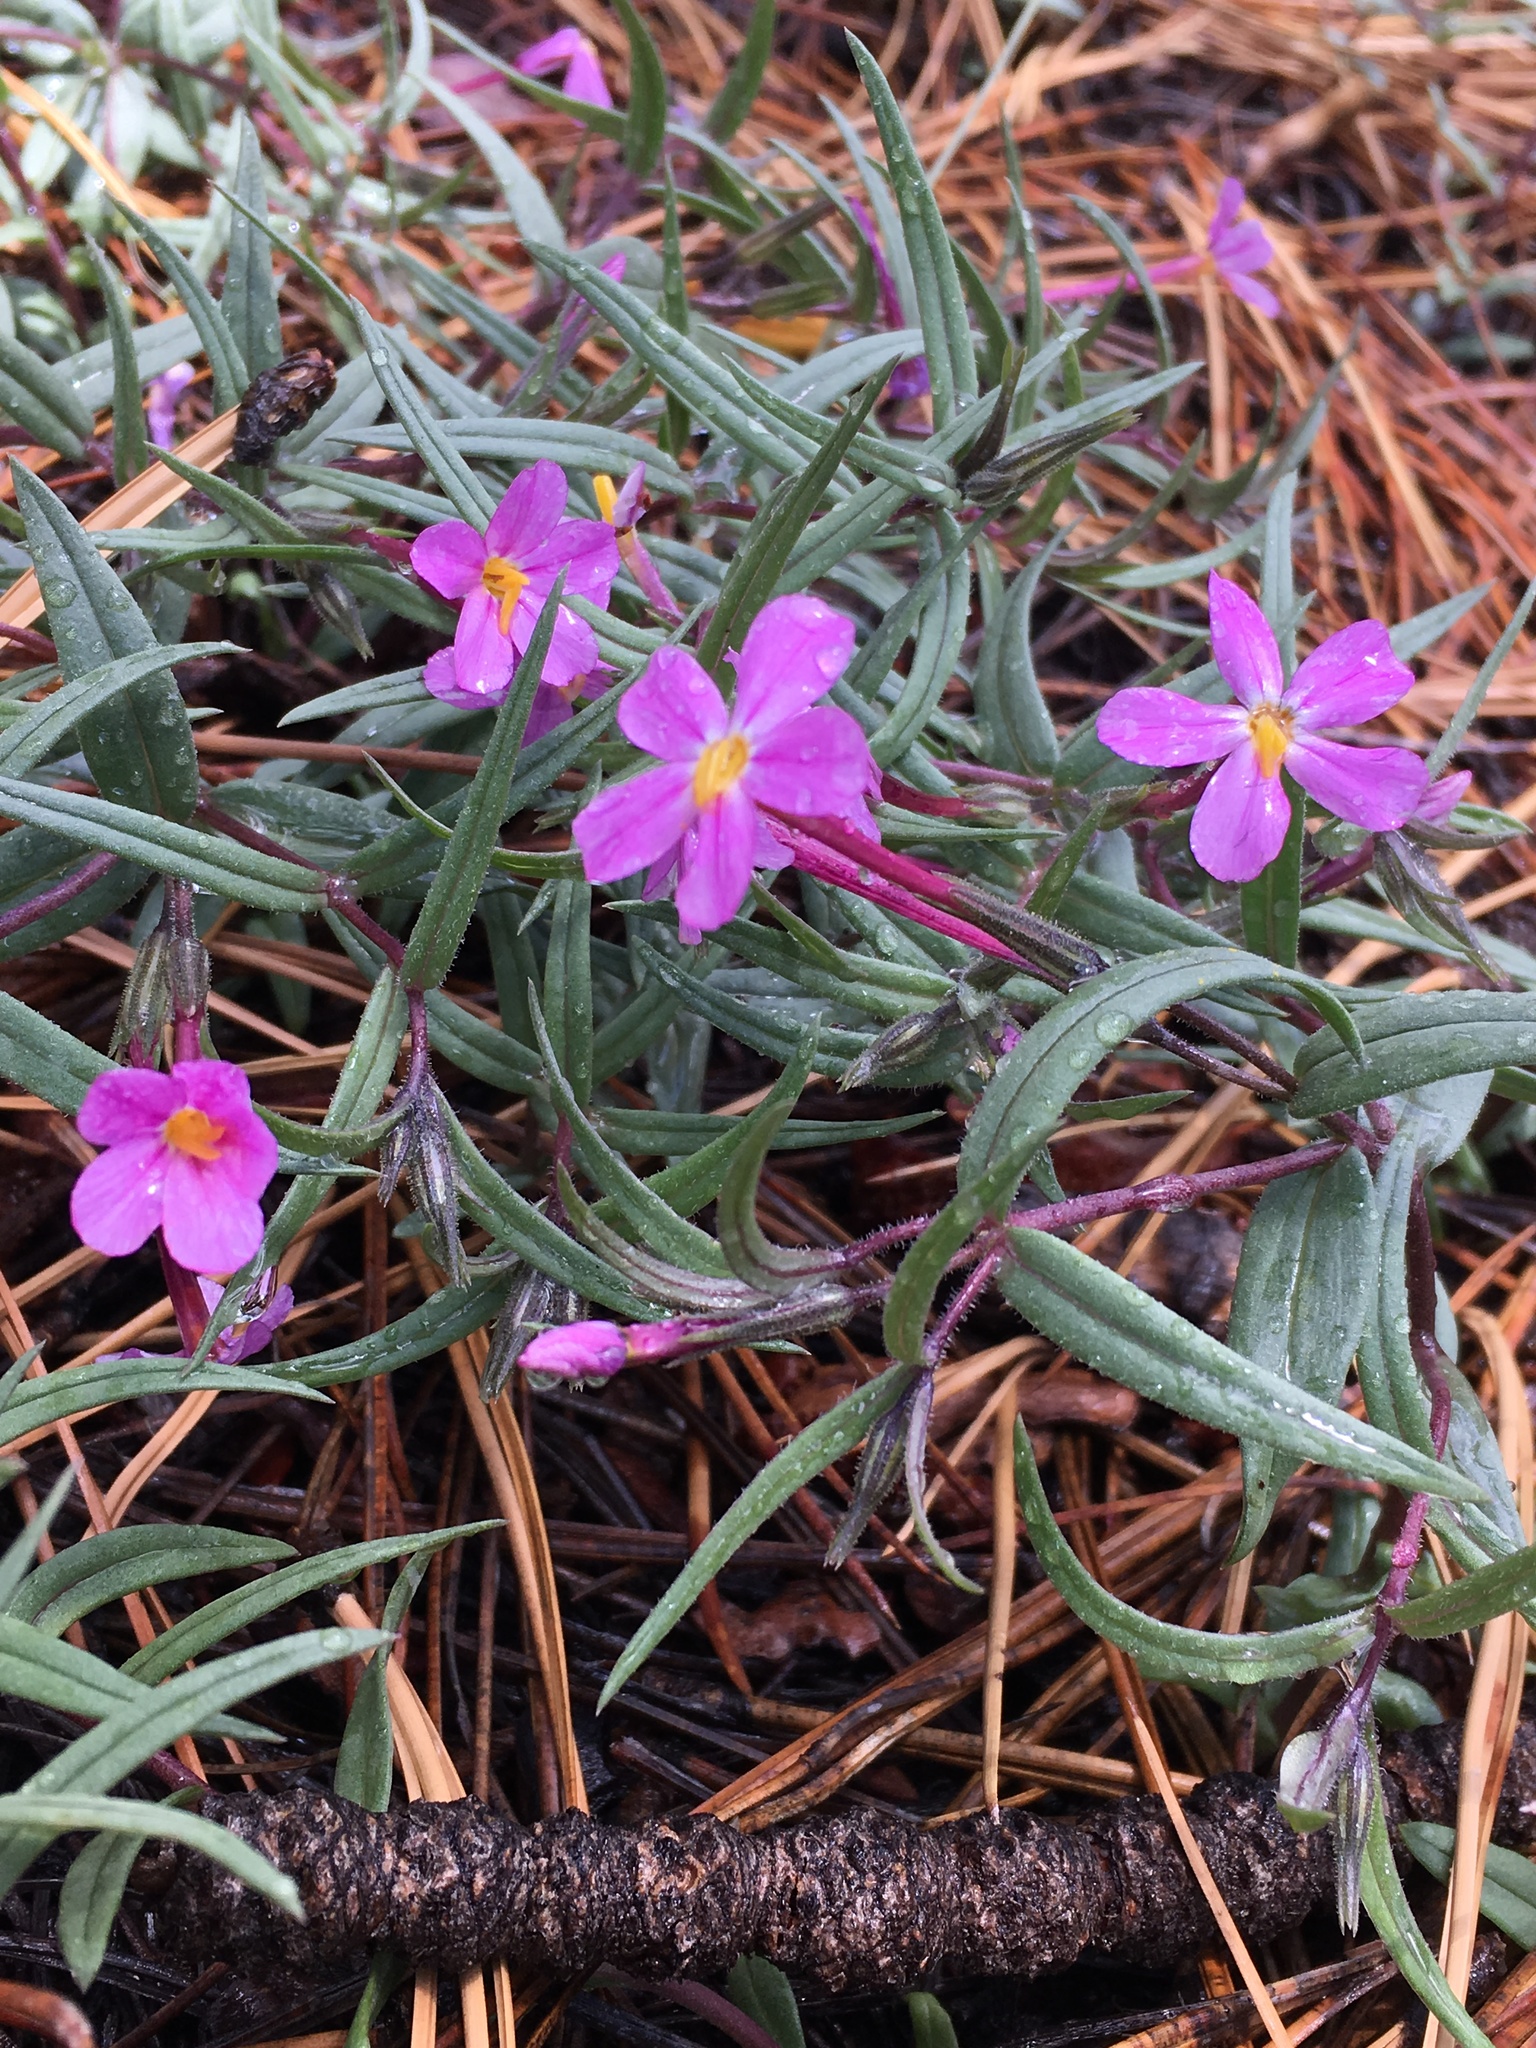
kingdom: Plantae
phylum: Tracheophyta
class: Magnoliopsida
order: Ericales
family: Polemoniaceae
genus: Phlox
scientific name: Phlox dolichantha
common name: Bear valley phlox
